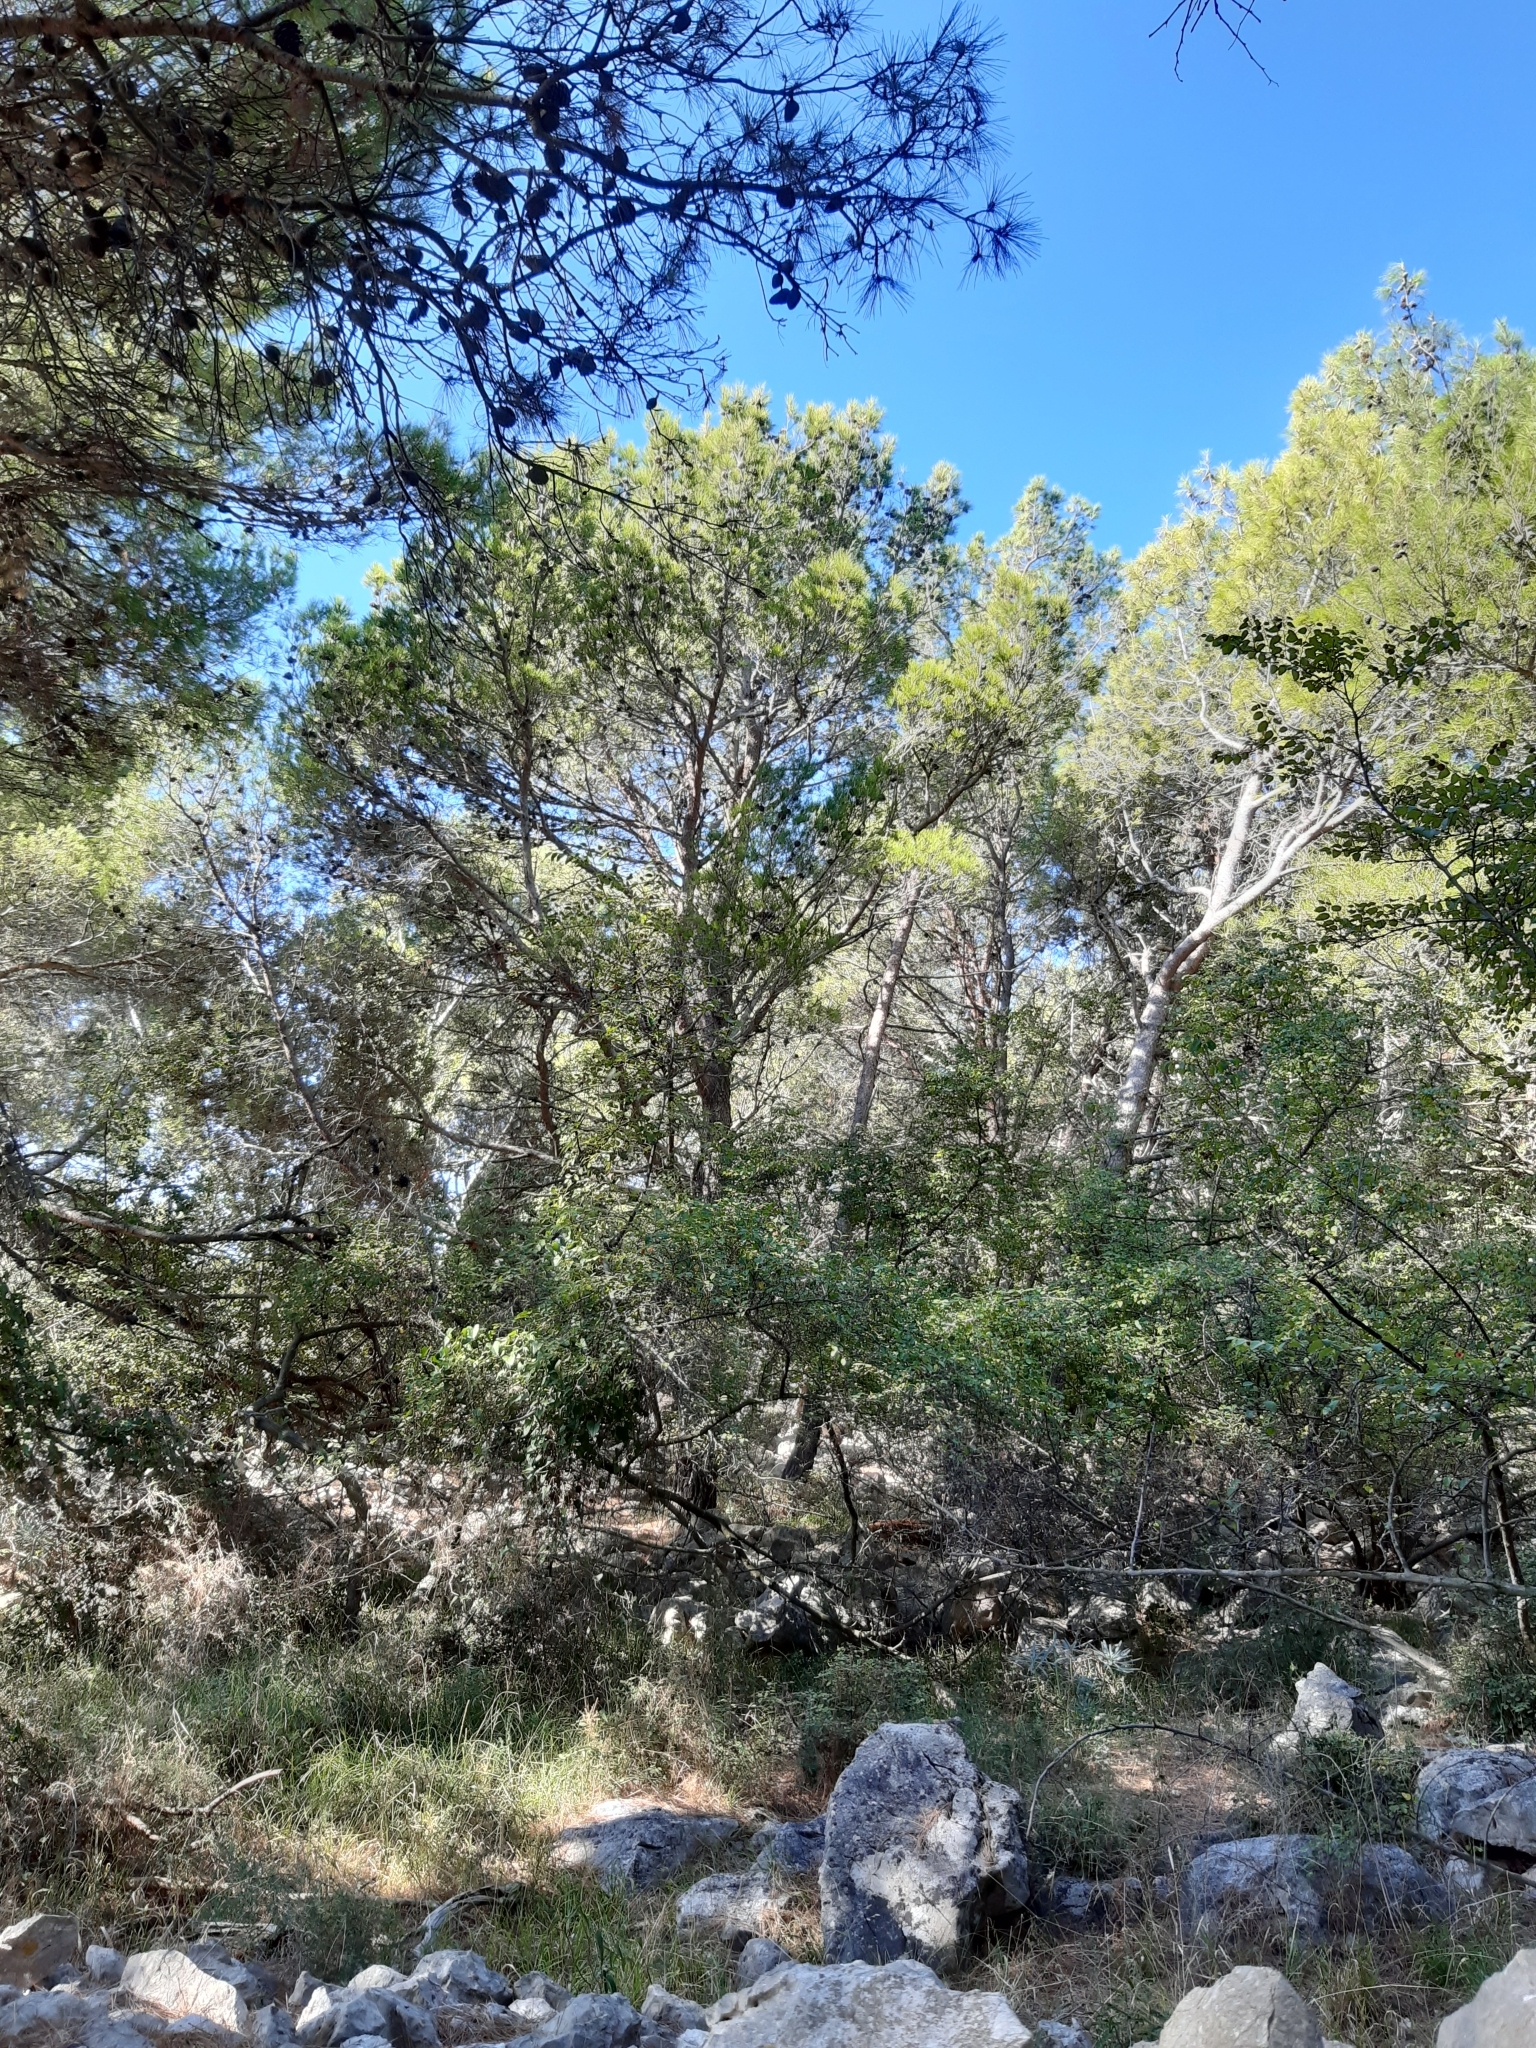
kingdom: Plantae
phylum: Tracheophyta
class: Pinopsida
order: Pinales
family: Pinaceae
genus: Pinus
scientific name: Pinus halepensis
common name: Aleppo pine
